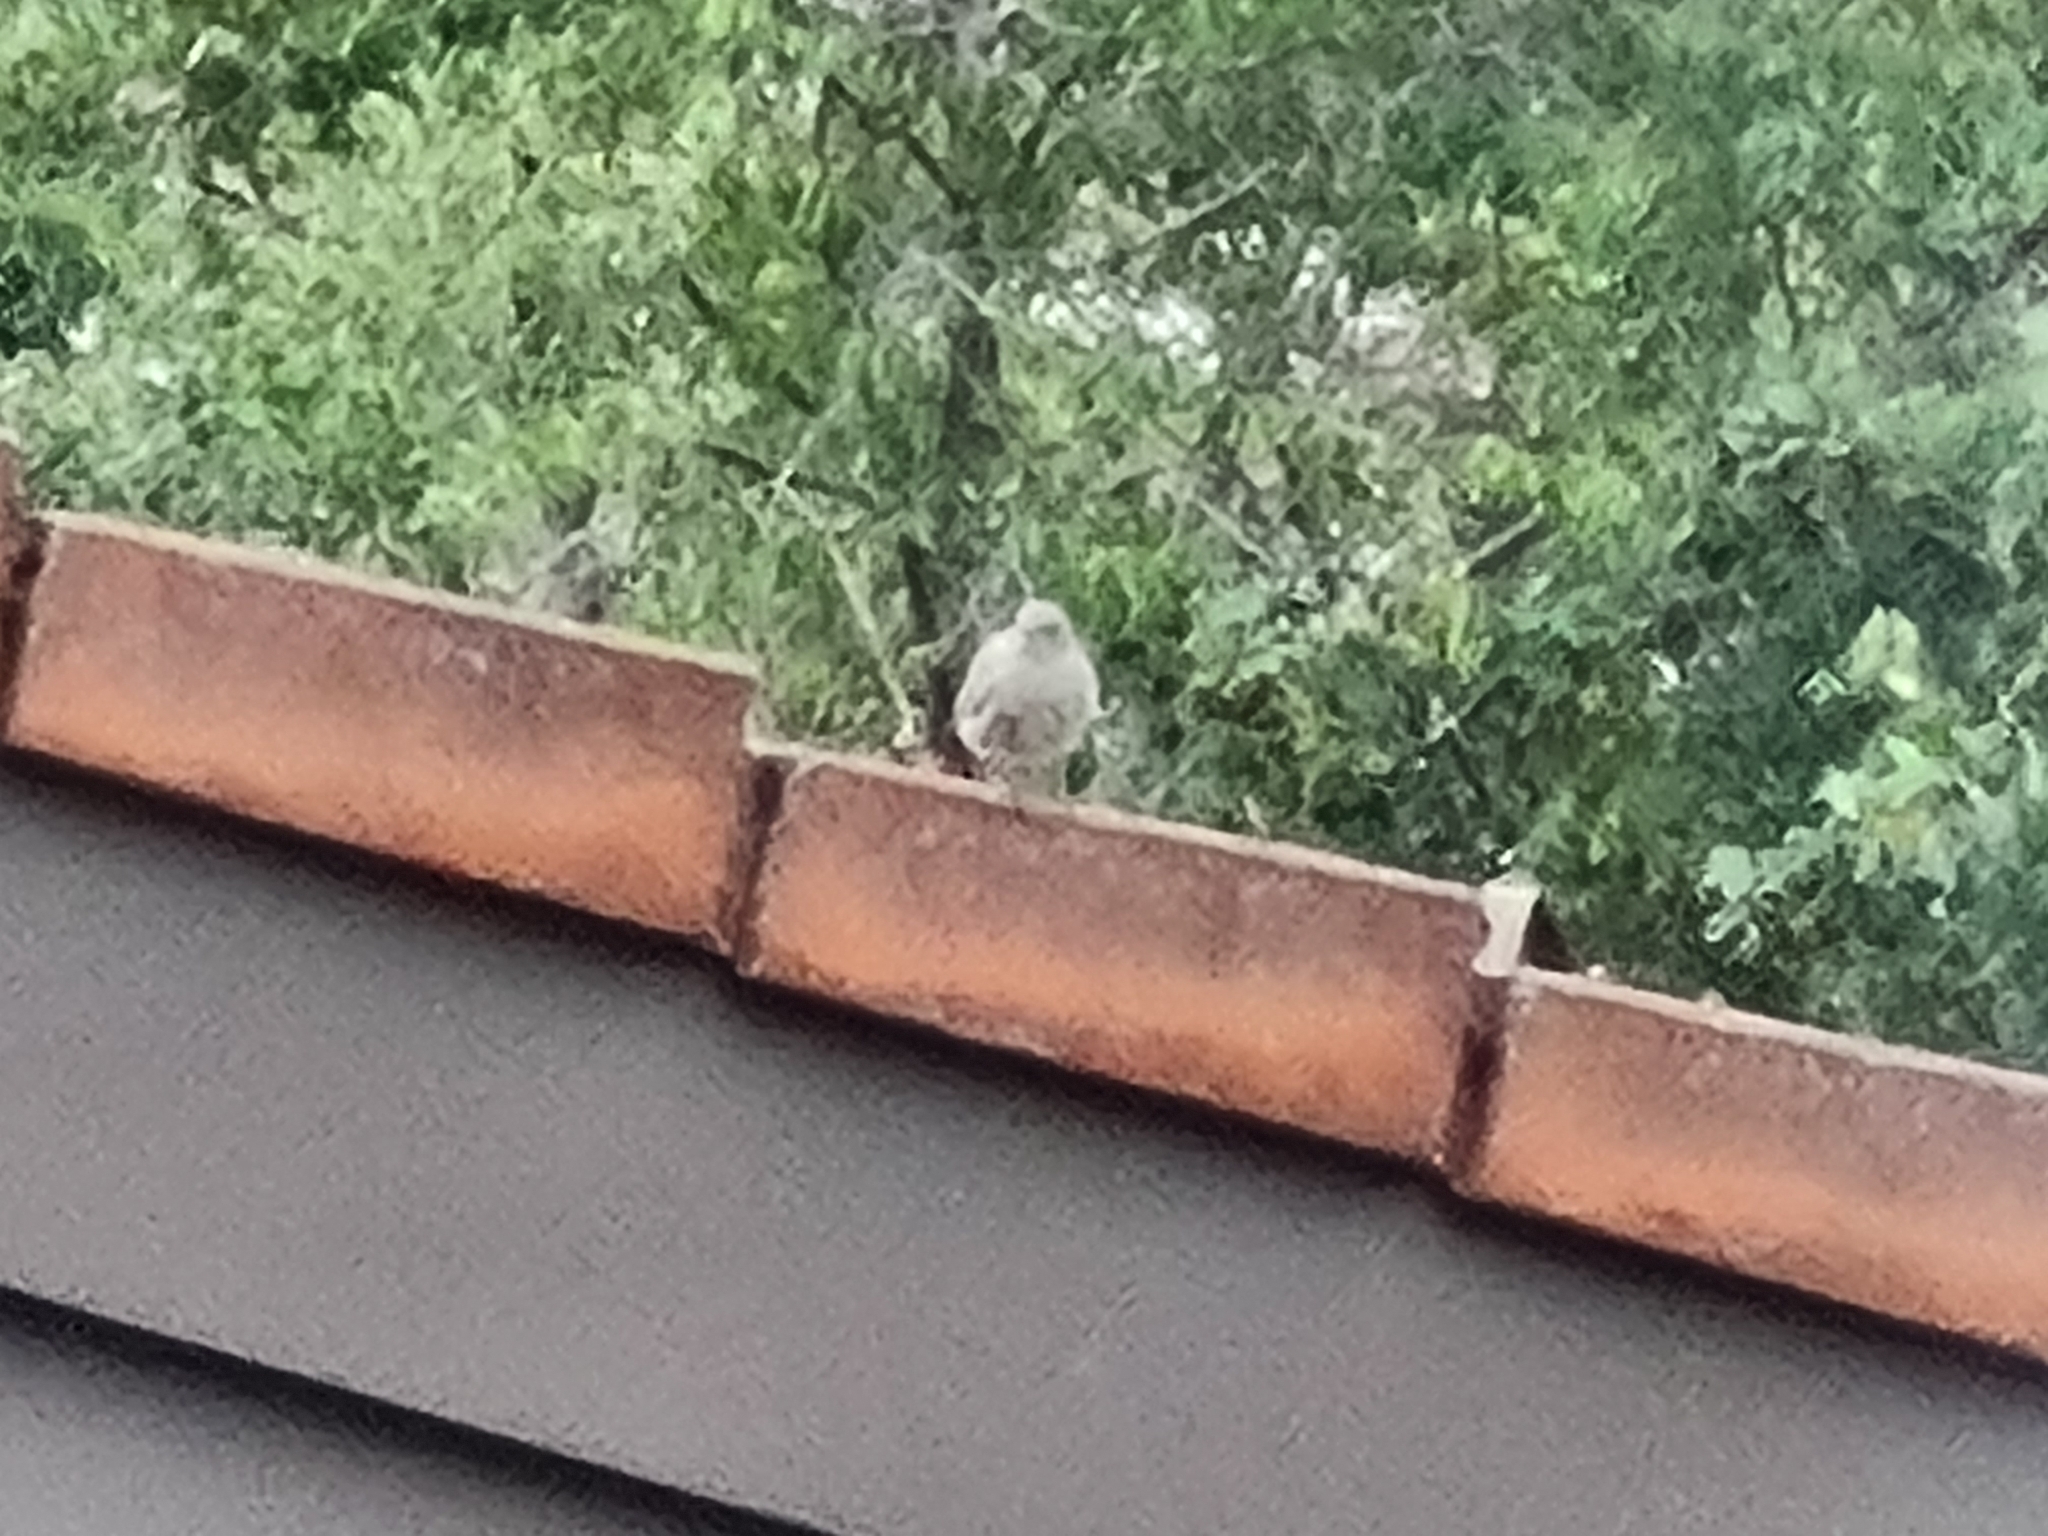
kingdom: Animalia
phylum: Chordata
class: Aves
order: Passeriformes
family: Muscicapidae
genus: Phoenicurus
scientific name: Phoenicurus ochruros
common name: Black redstart
